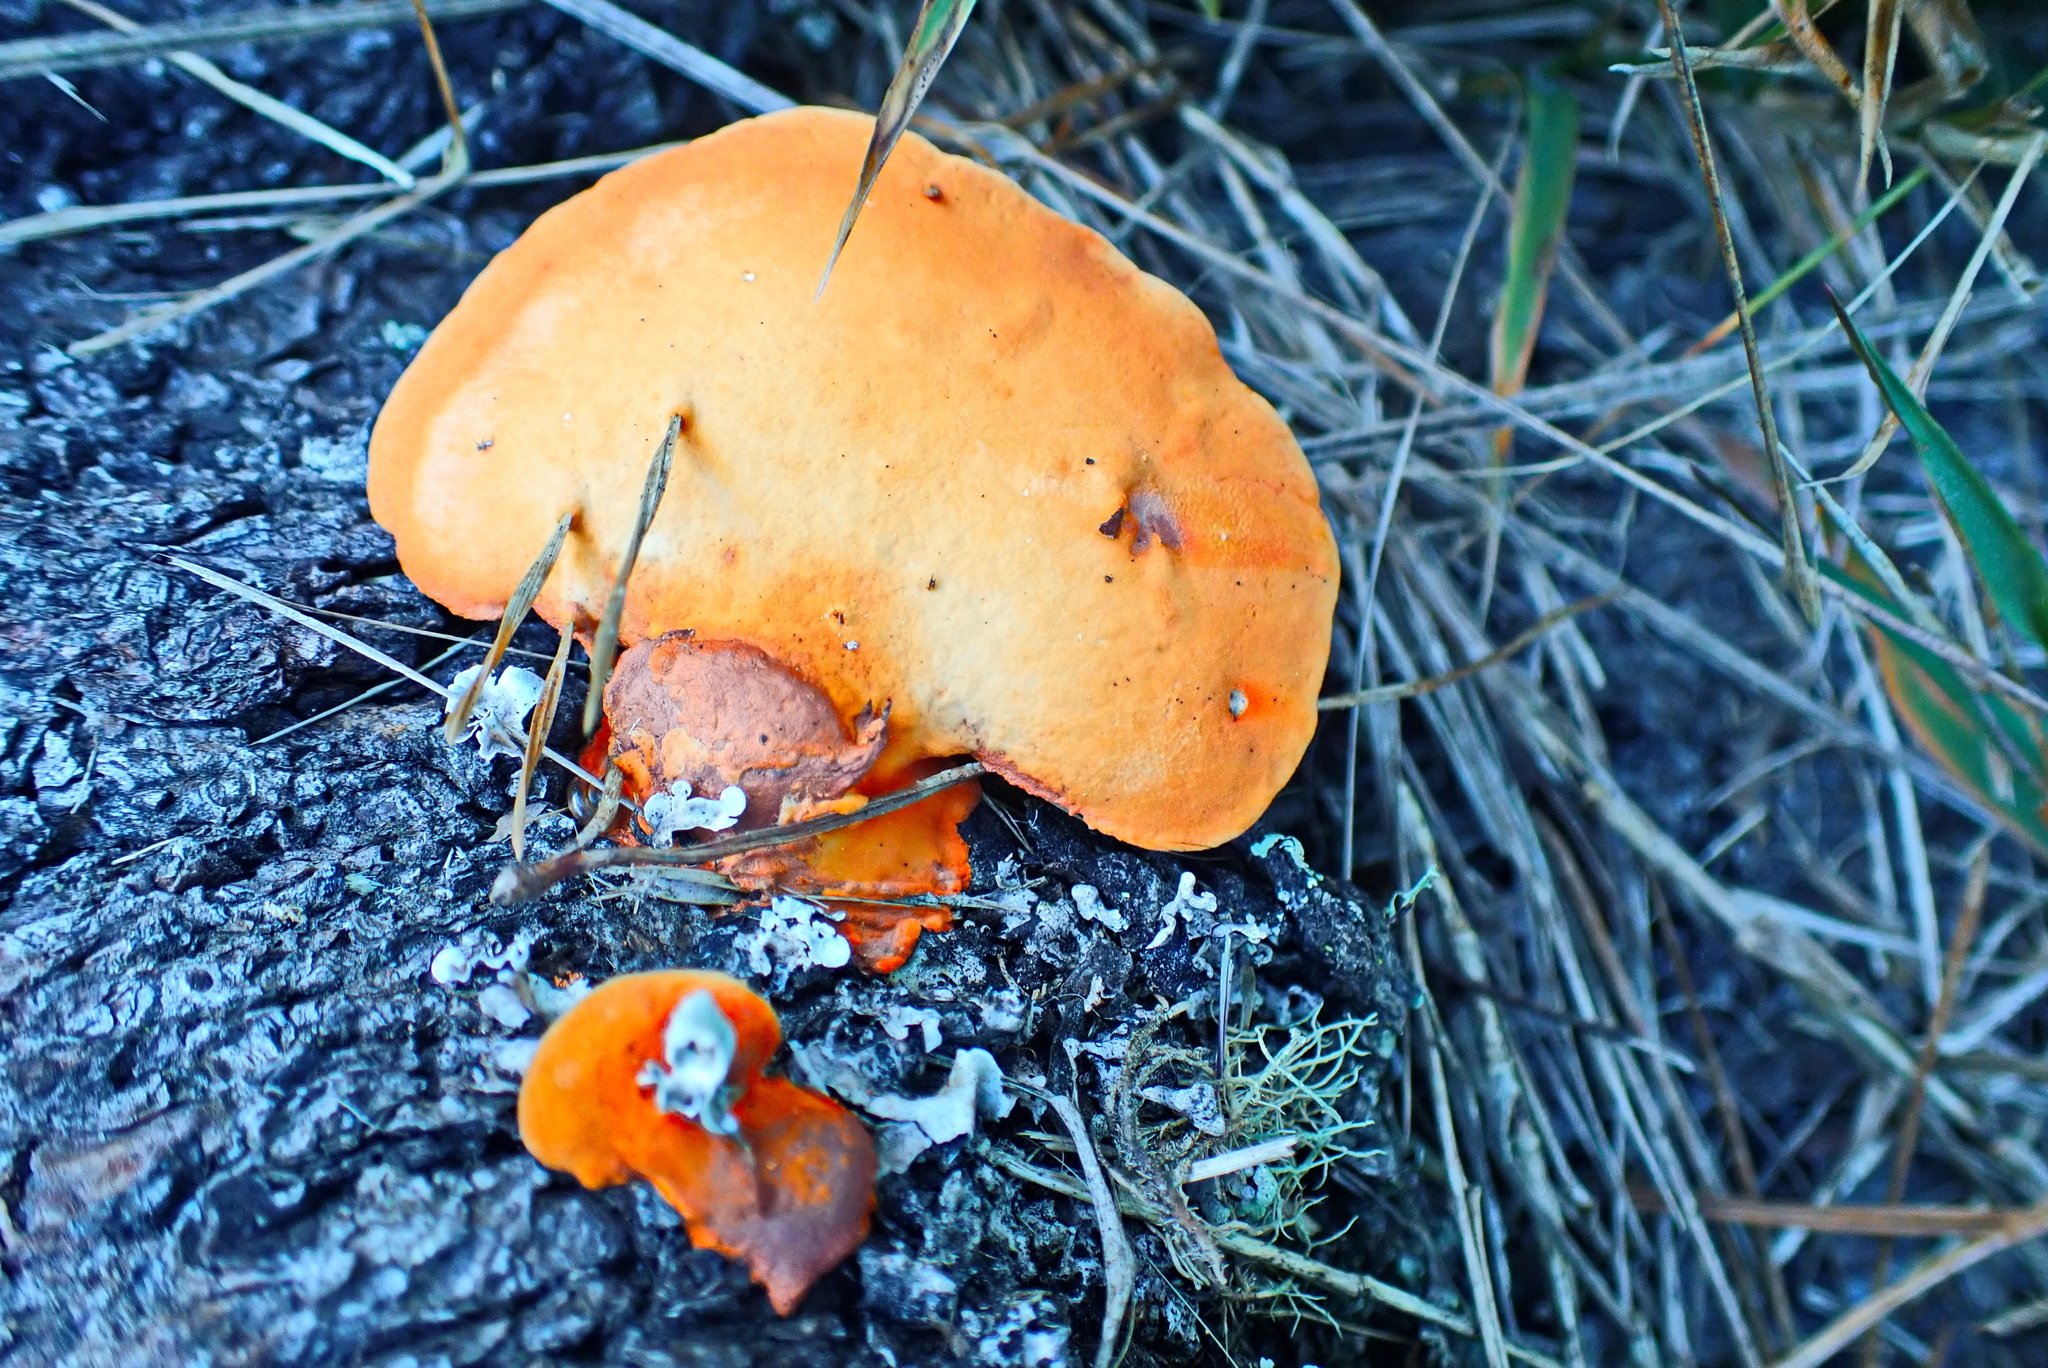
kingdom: Fungi
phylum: Basidiomycota
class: Agaricomycetes
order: Polyporales
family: Polyporaceae
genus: Trametes
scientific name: Trametes coccinea
